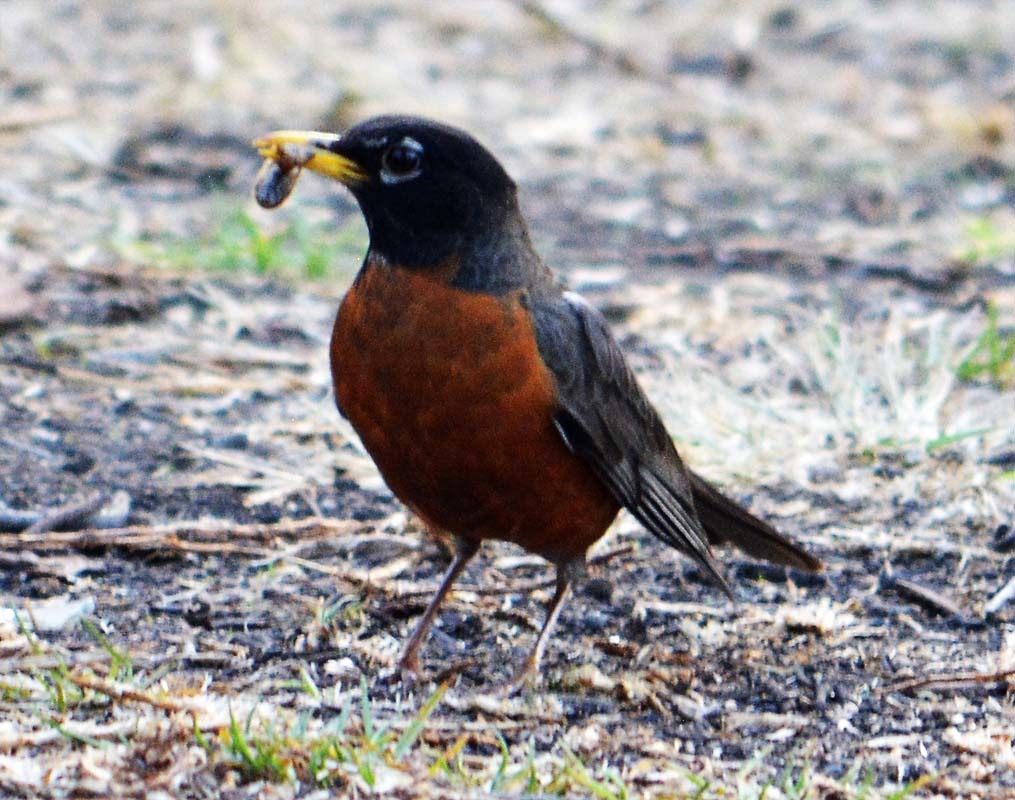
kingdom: Animalia
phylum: Chordata
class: Aves
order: Passeriformes
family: Turdidae
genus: Turdus
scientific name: Turdus migratorius
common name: American robin
